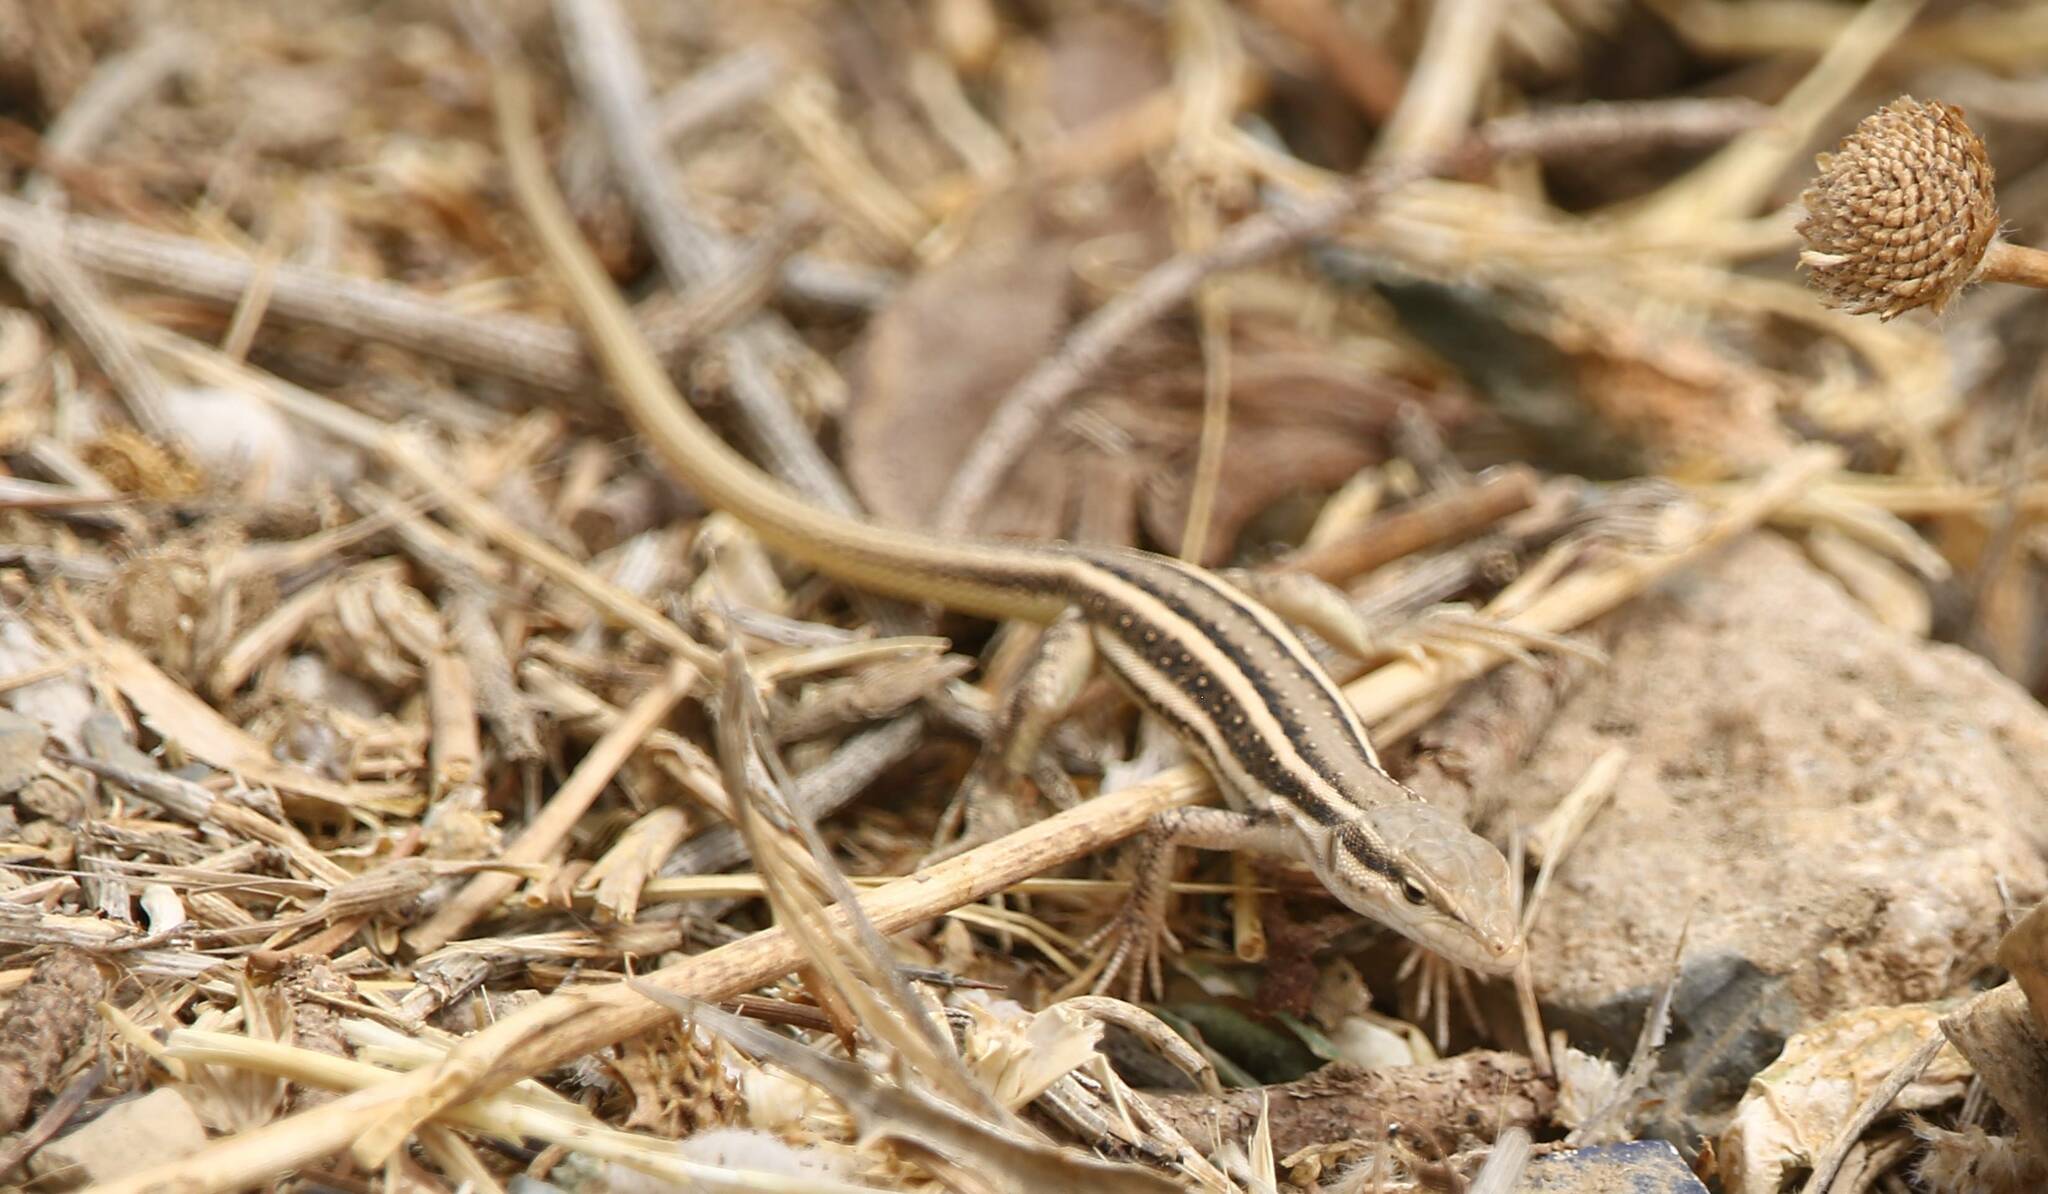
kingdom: Animalia
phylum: Chordata
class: Squamata
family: Lacertidae
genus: Mesalina
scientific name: Mesalina olivieri
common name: Oliver's desert racer
